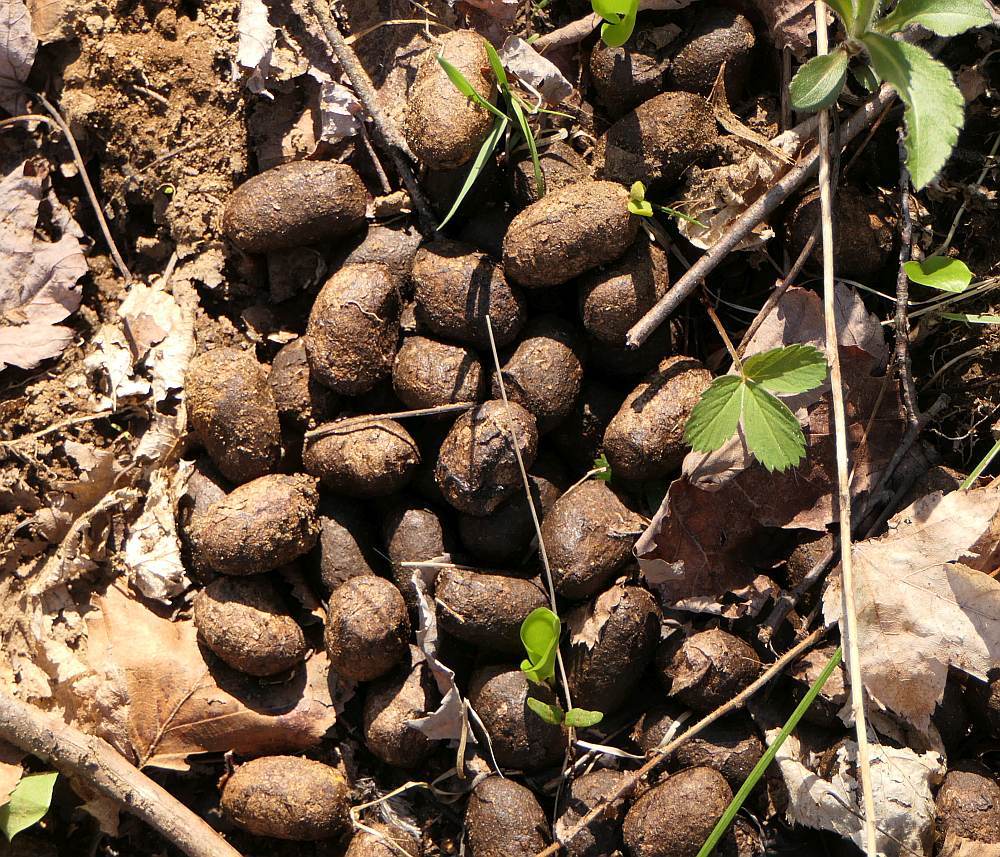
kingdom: Animalia
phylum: Chordata
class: Mammalia
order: Artiodactyla
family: Cervidae
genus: Alces
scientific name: Alces alces
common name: Moose
